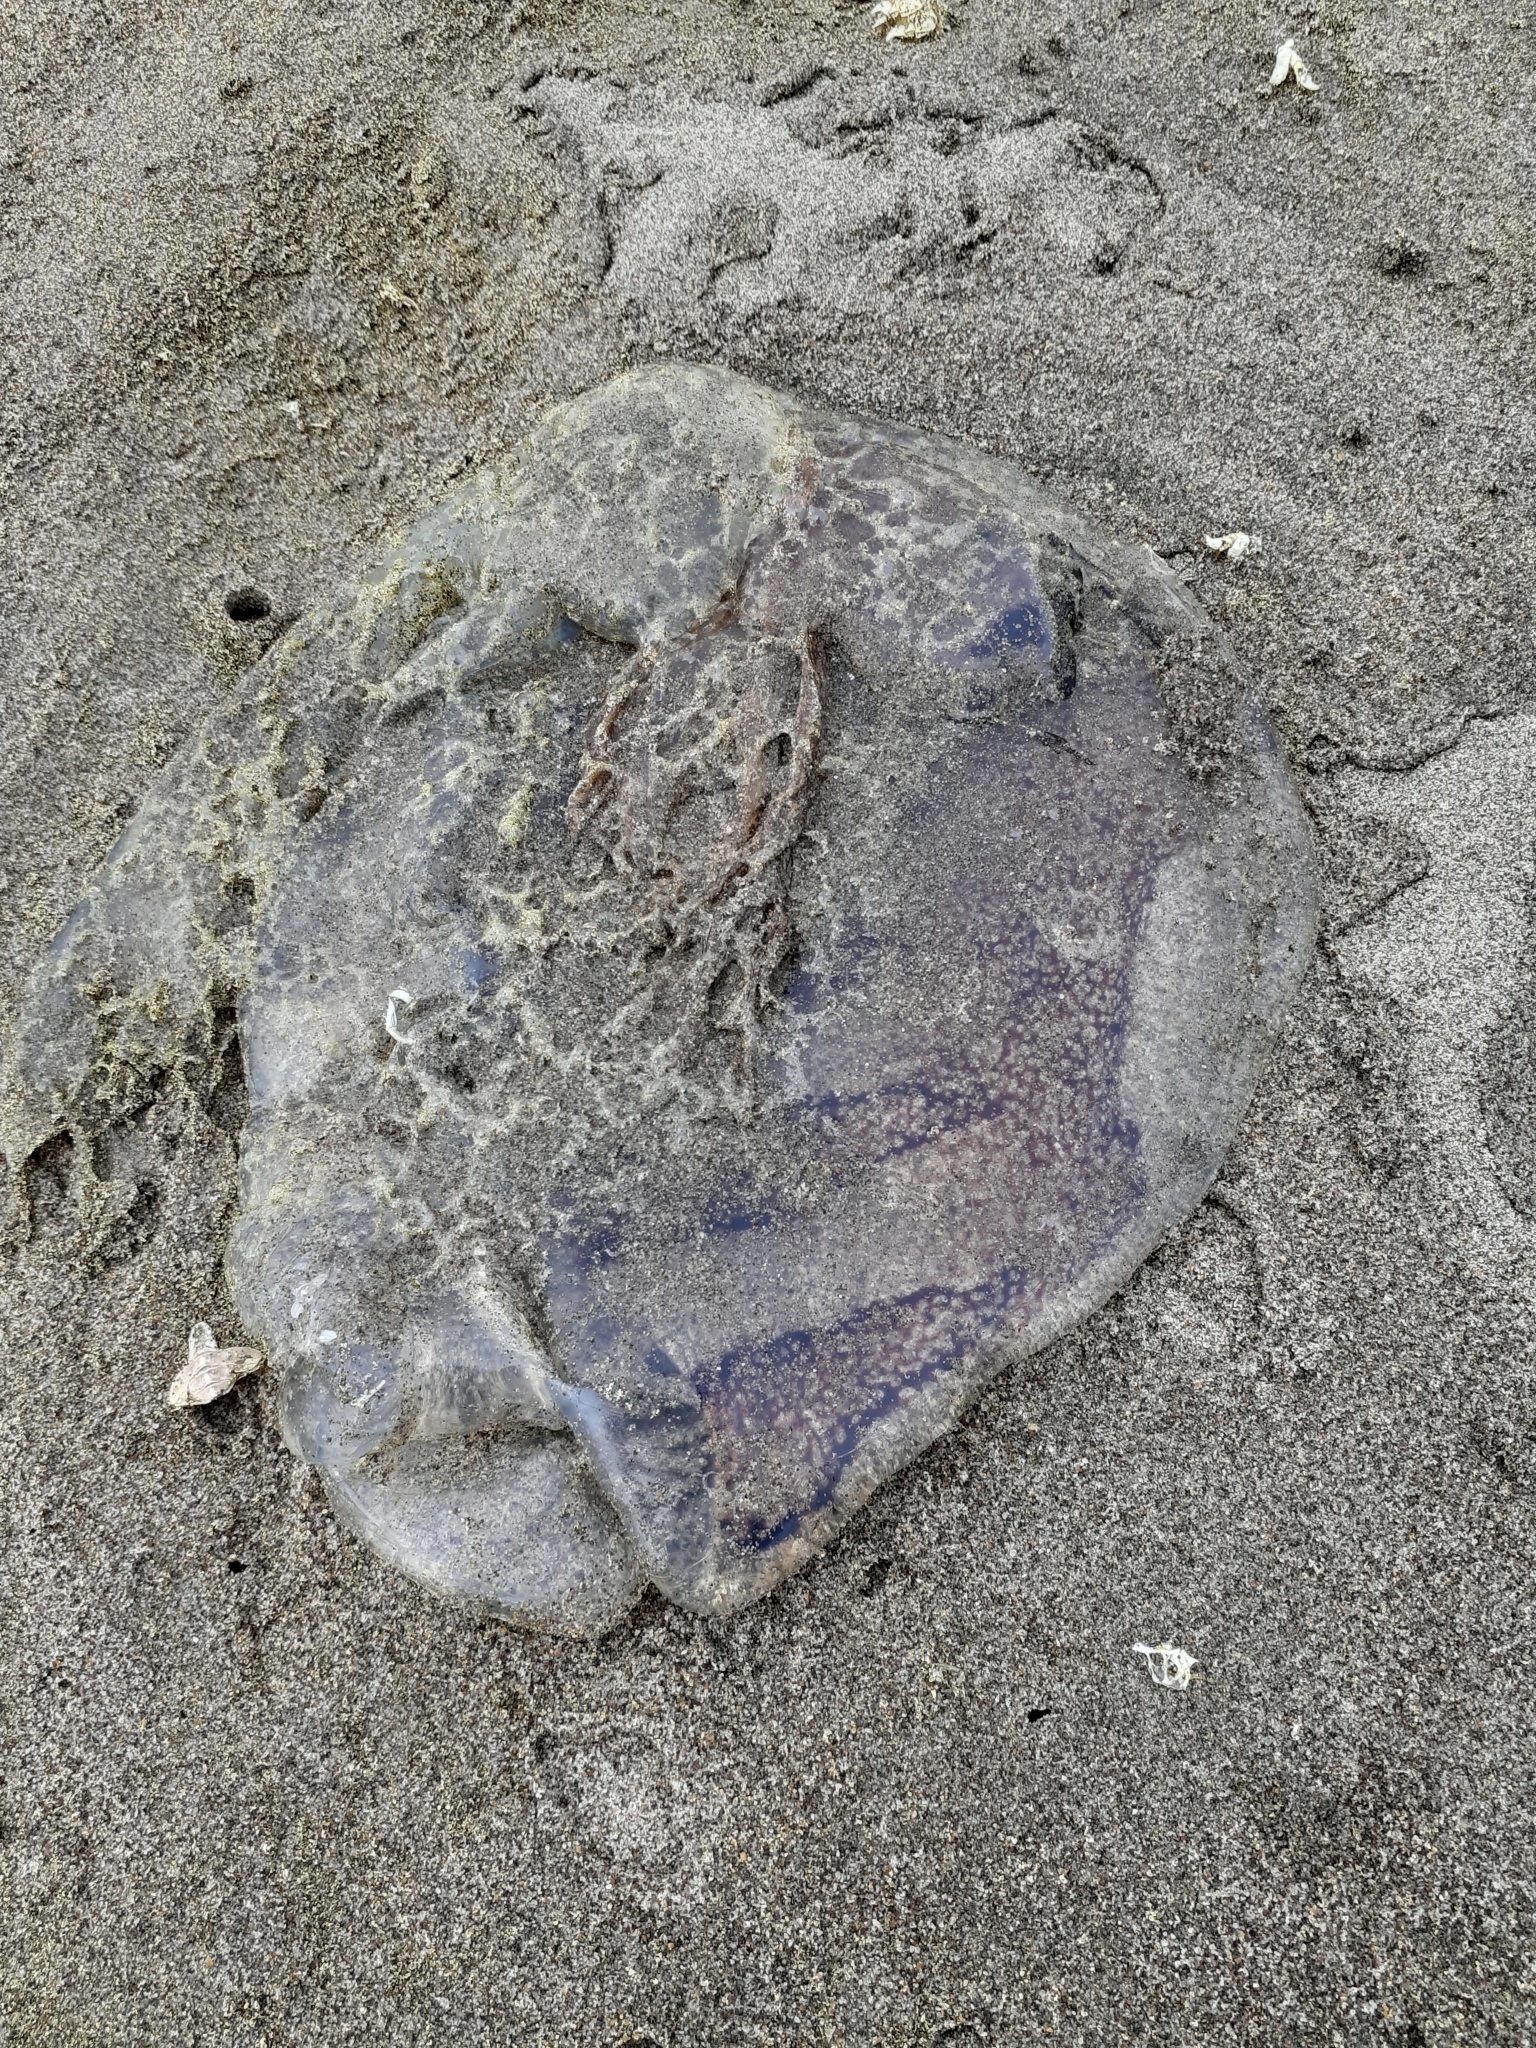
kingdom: Animalia
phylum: Cnidaria
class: Scyphozoa
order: Semaeostomeae
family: Pelagiidae
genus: Chrysaora
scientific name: Chrysaora plocamia
